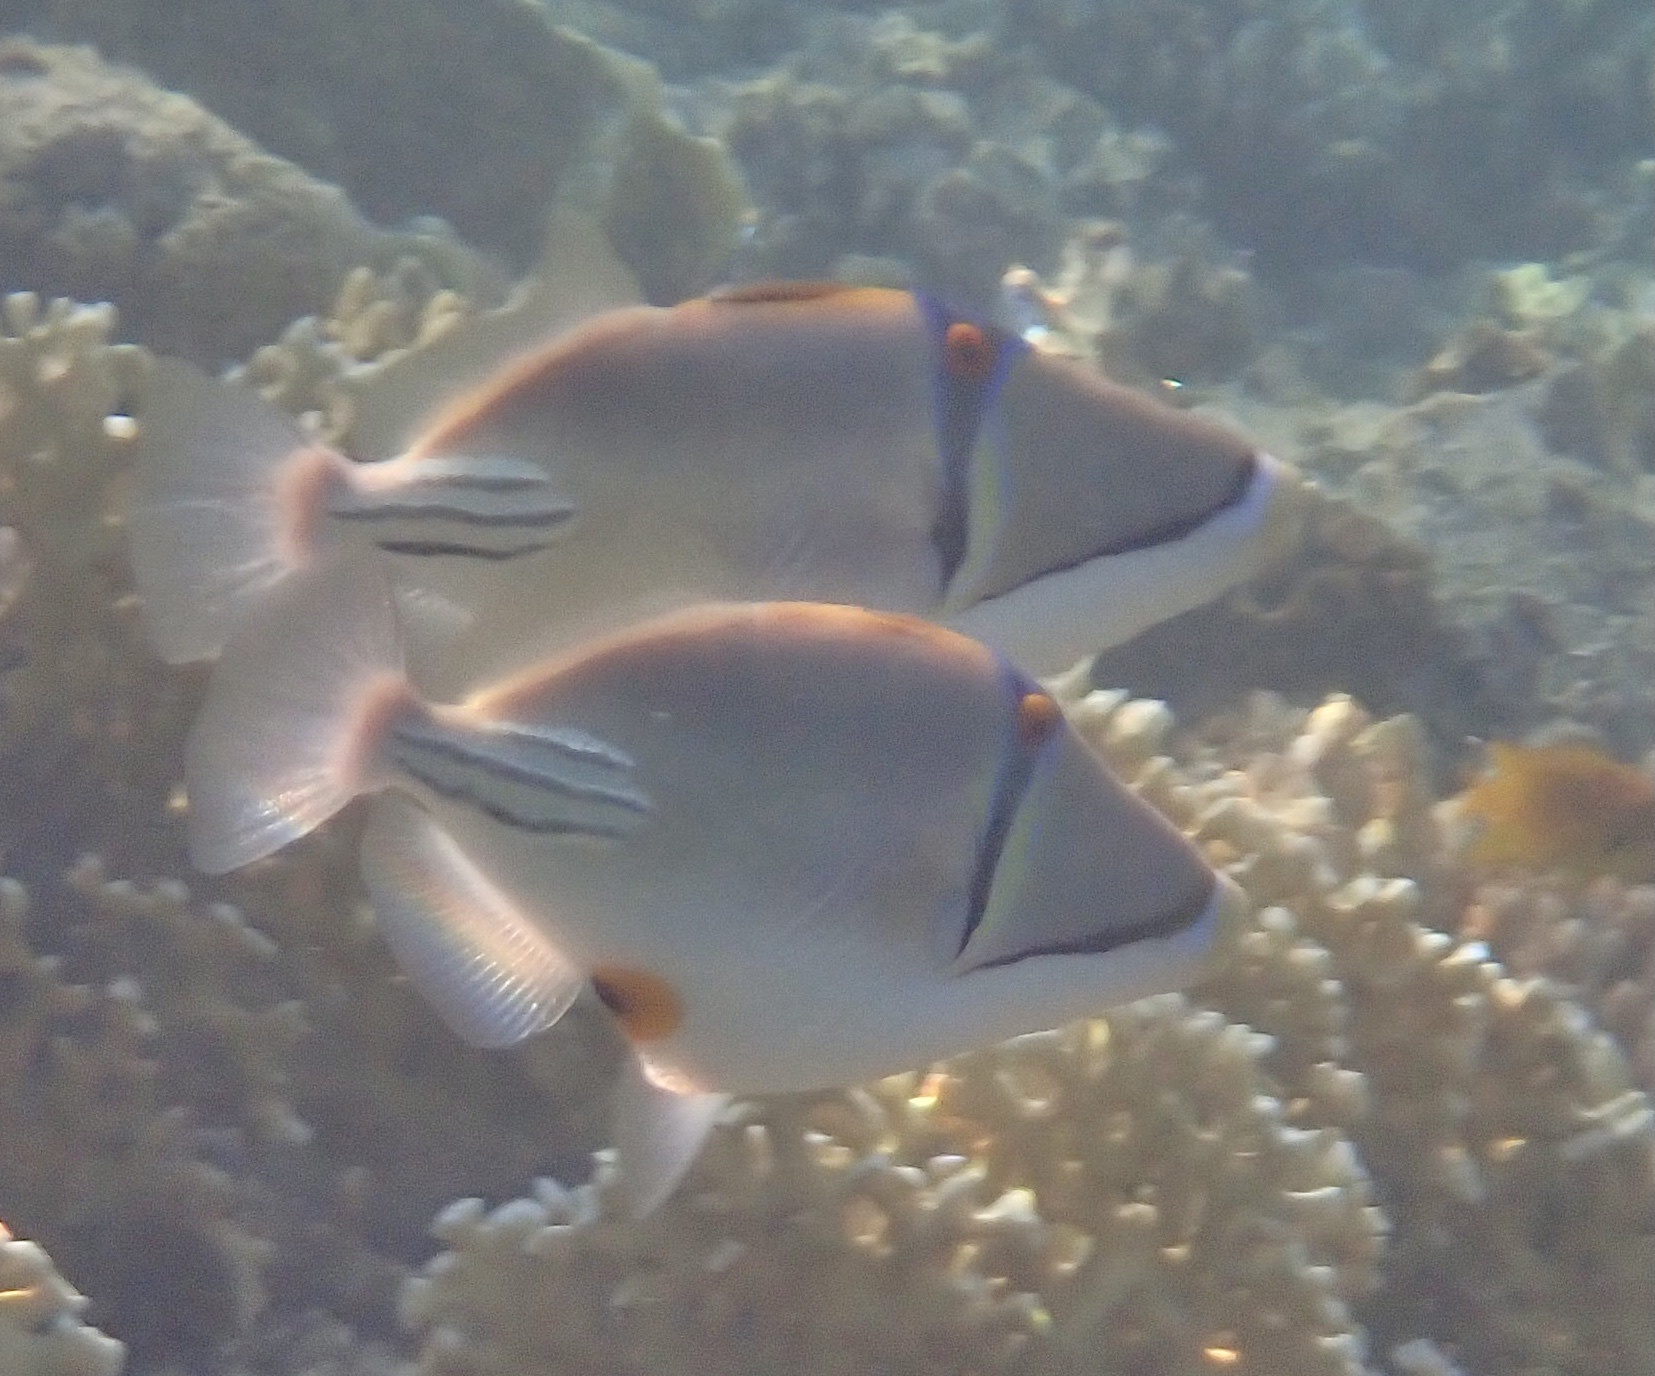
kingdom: Animalia
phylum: Chordata
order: Tetraodontiformes
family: Balistidae
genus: Rhinecanthus
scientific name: Rhinecanthus assasi
